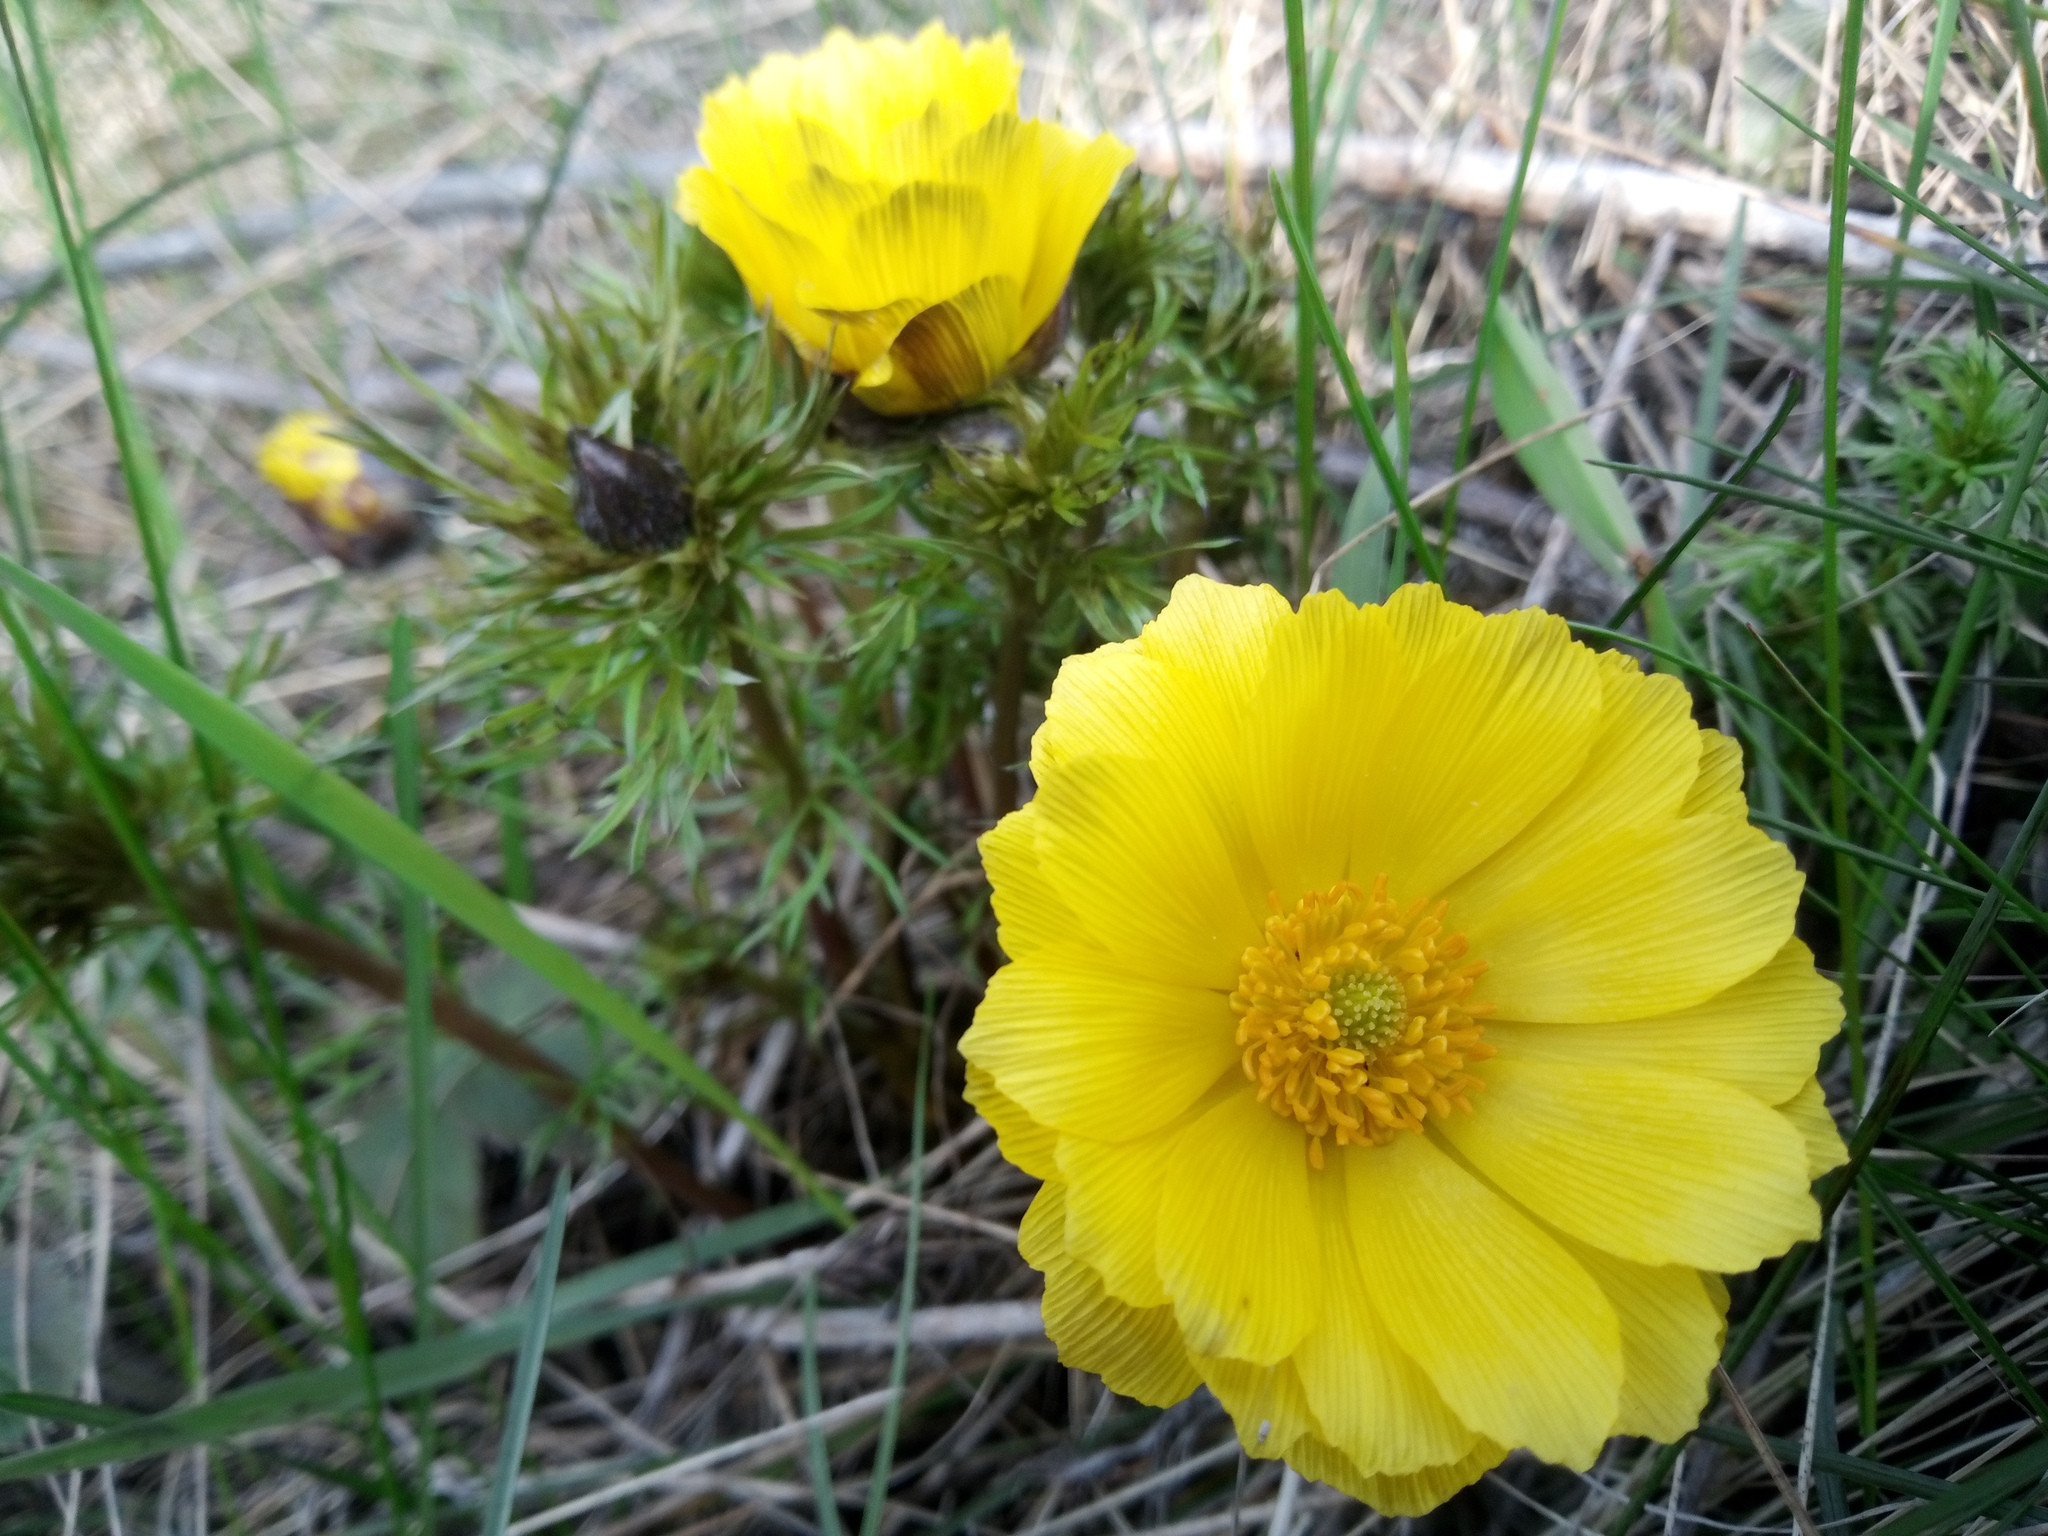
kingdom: Plantae
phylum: Tracheophyta
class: Magnoliopsida
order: Ranunculales
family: Ranunculaceae
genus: Adonis
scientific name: Adonis vernalis
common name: Yellow pheasants-eye
